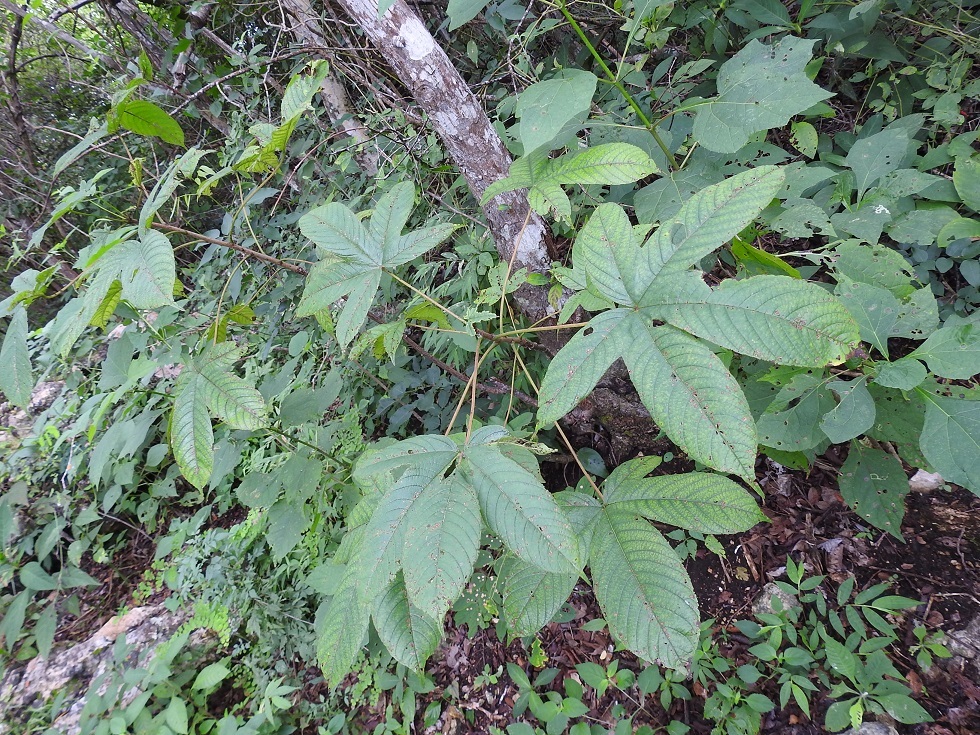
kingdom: Plantae
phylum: Tracheophyta
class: Magnoliopsida
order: Malvales
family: Cochlospermaceae
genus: Cochlospermum
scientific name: Cochlospermum vitifolium
